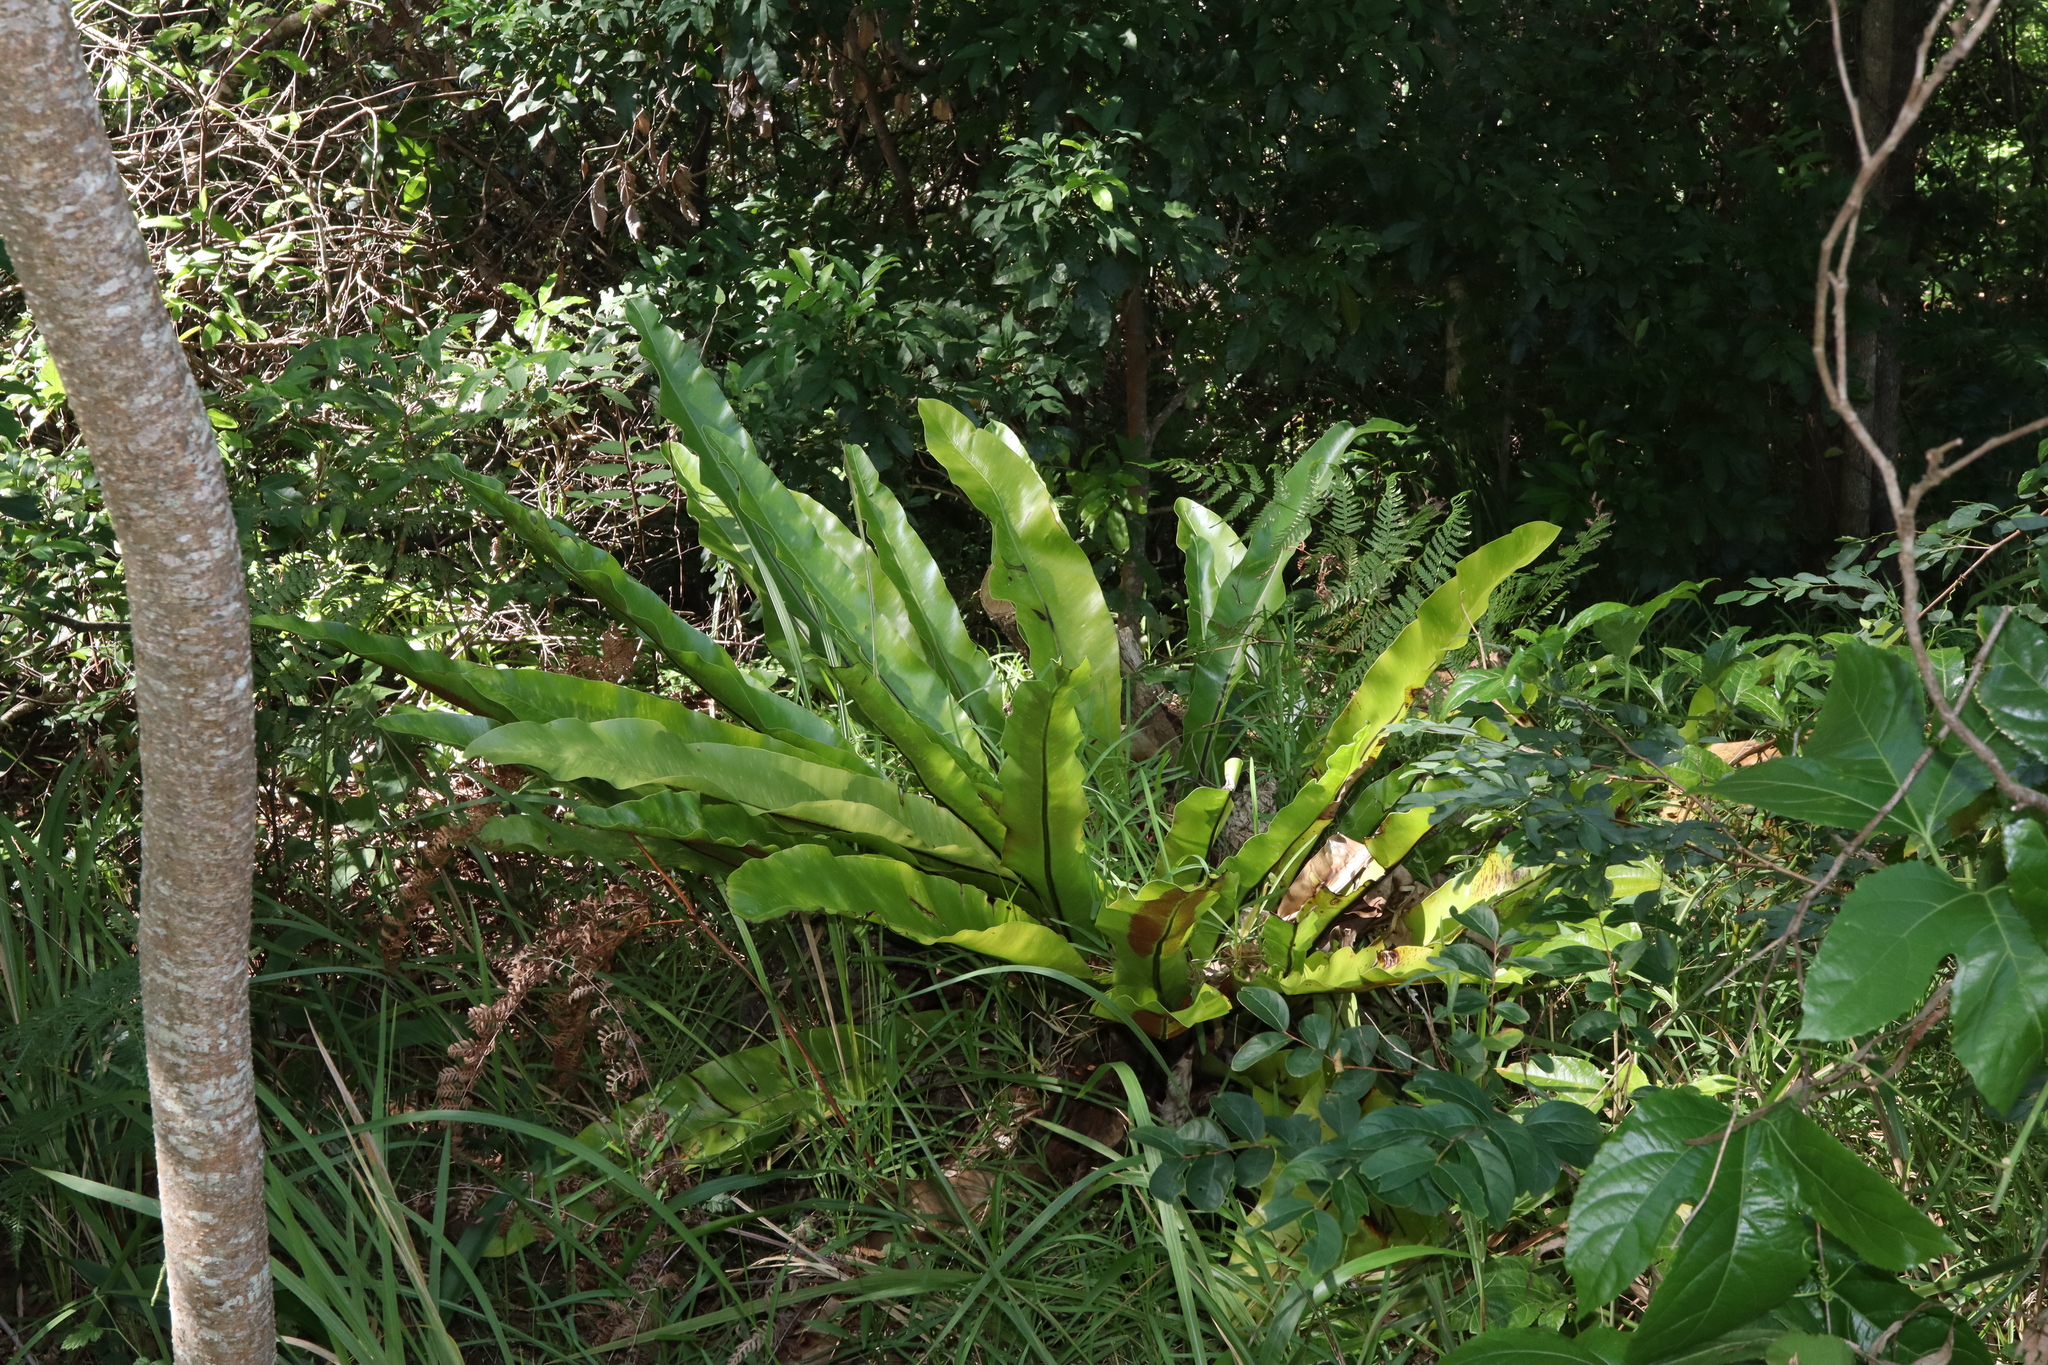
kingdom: Plantae
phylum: Tracheophyta
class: Polypodiopsida
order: Polypodiales
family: Aspleniaceae
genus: Asplenium
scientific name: Asplenium australasicum
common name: Bird's-nest fern
